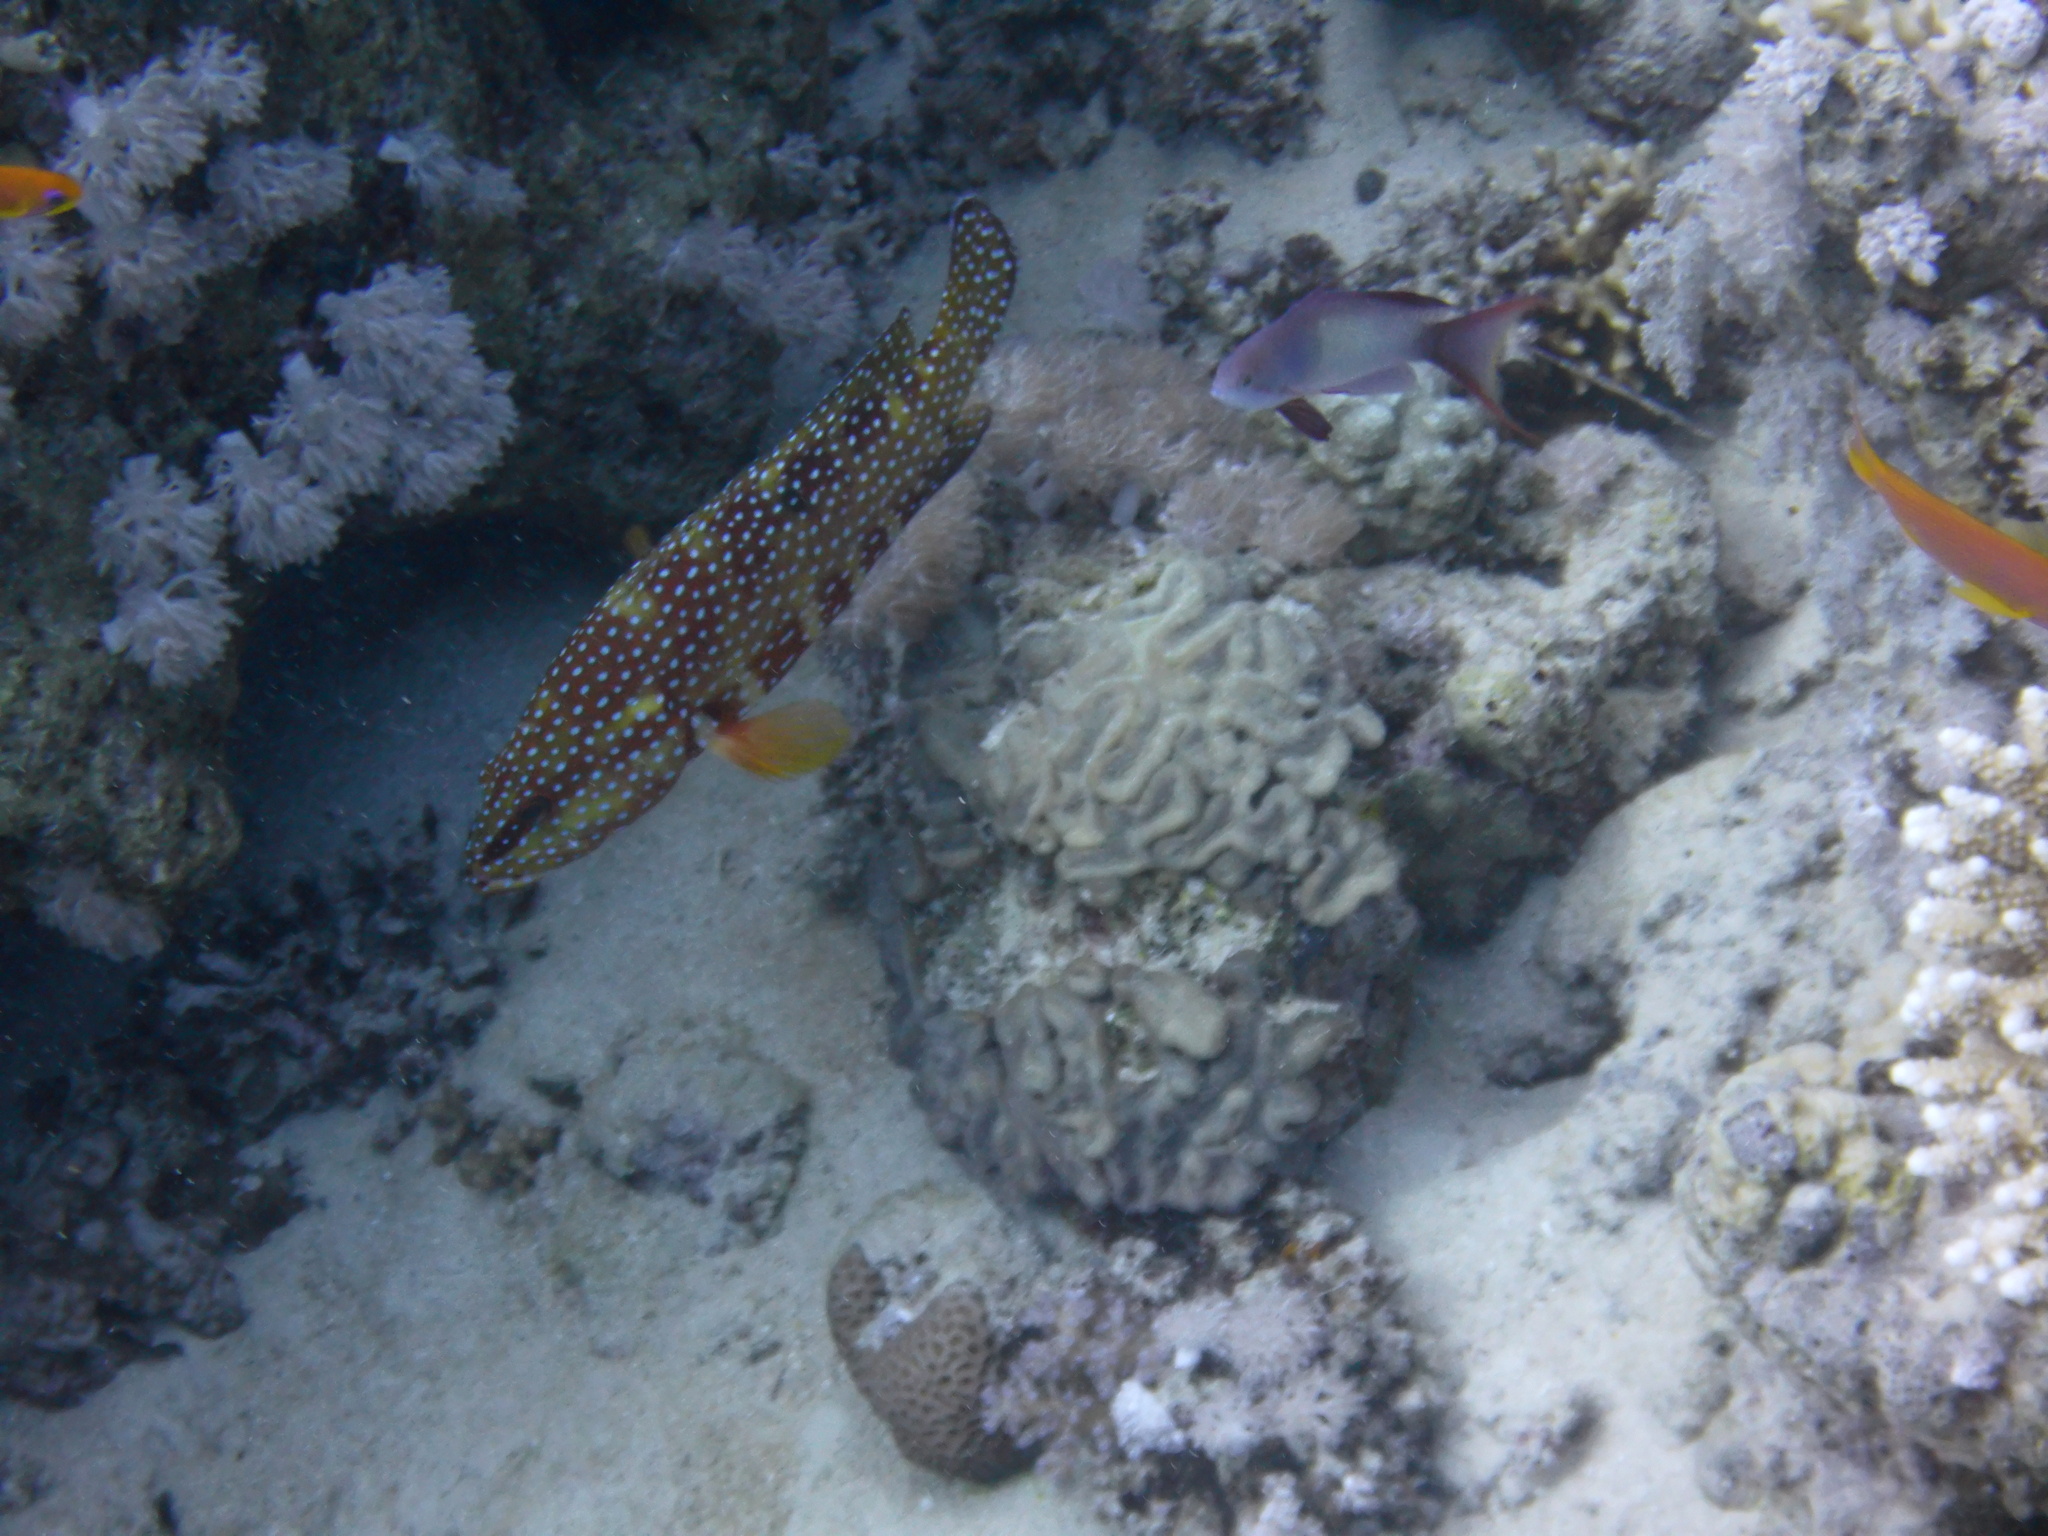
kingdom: Animalia
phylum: Chordata
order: Perciformes
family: Serranidae
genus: Cephalopholis
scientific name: Cephalopholis miniata
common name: Coral hind
